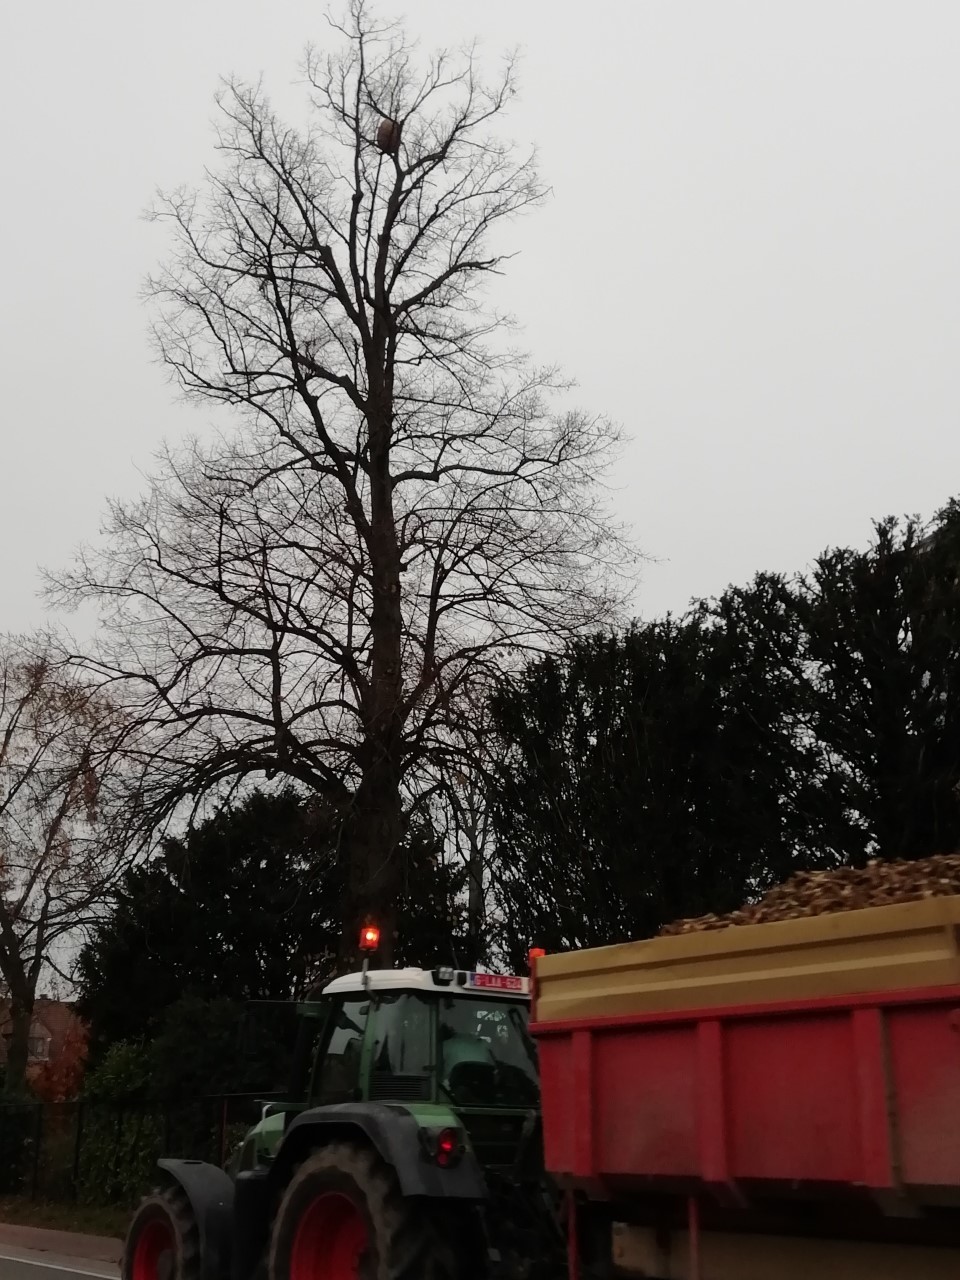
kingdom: Animalia
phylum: Arthropoda
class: Insecta
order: Hymenoptera
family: Vespidae
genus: Vespa
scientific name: Vespa velutina
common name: Asian hornet
